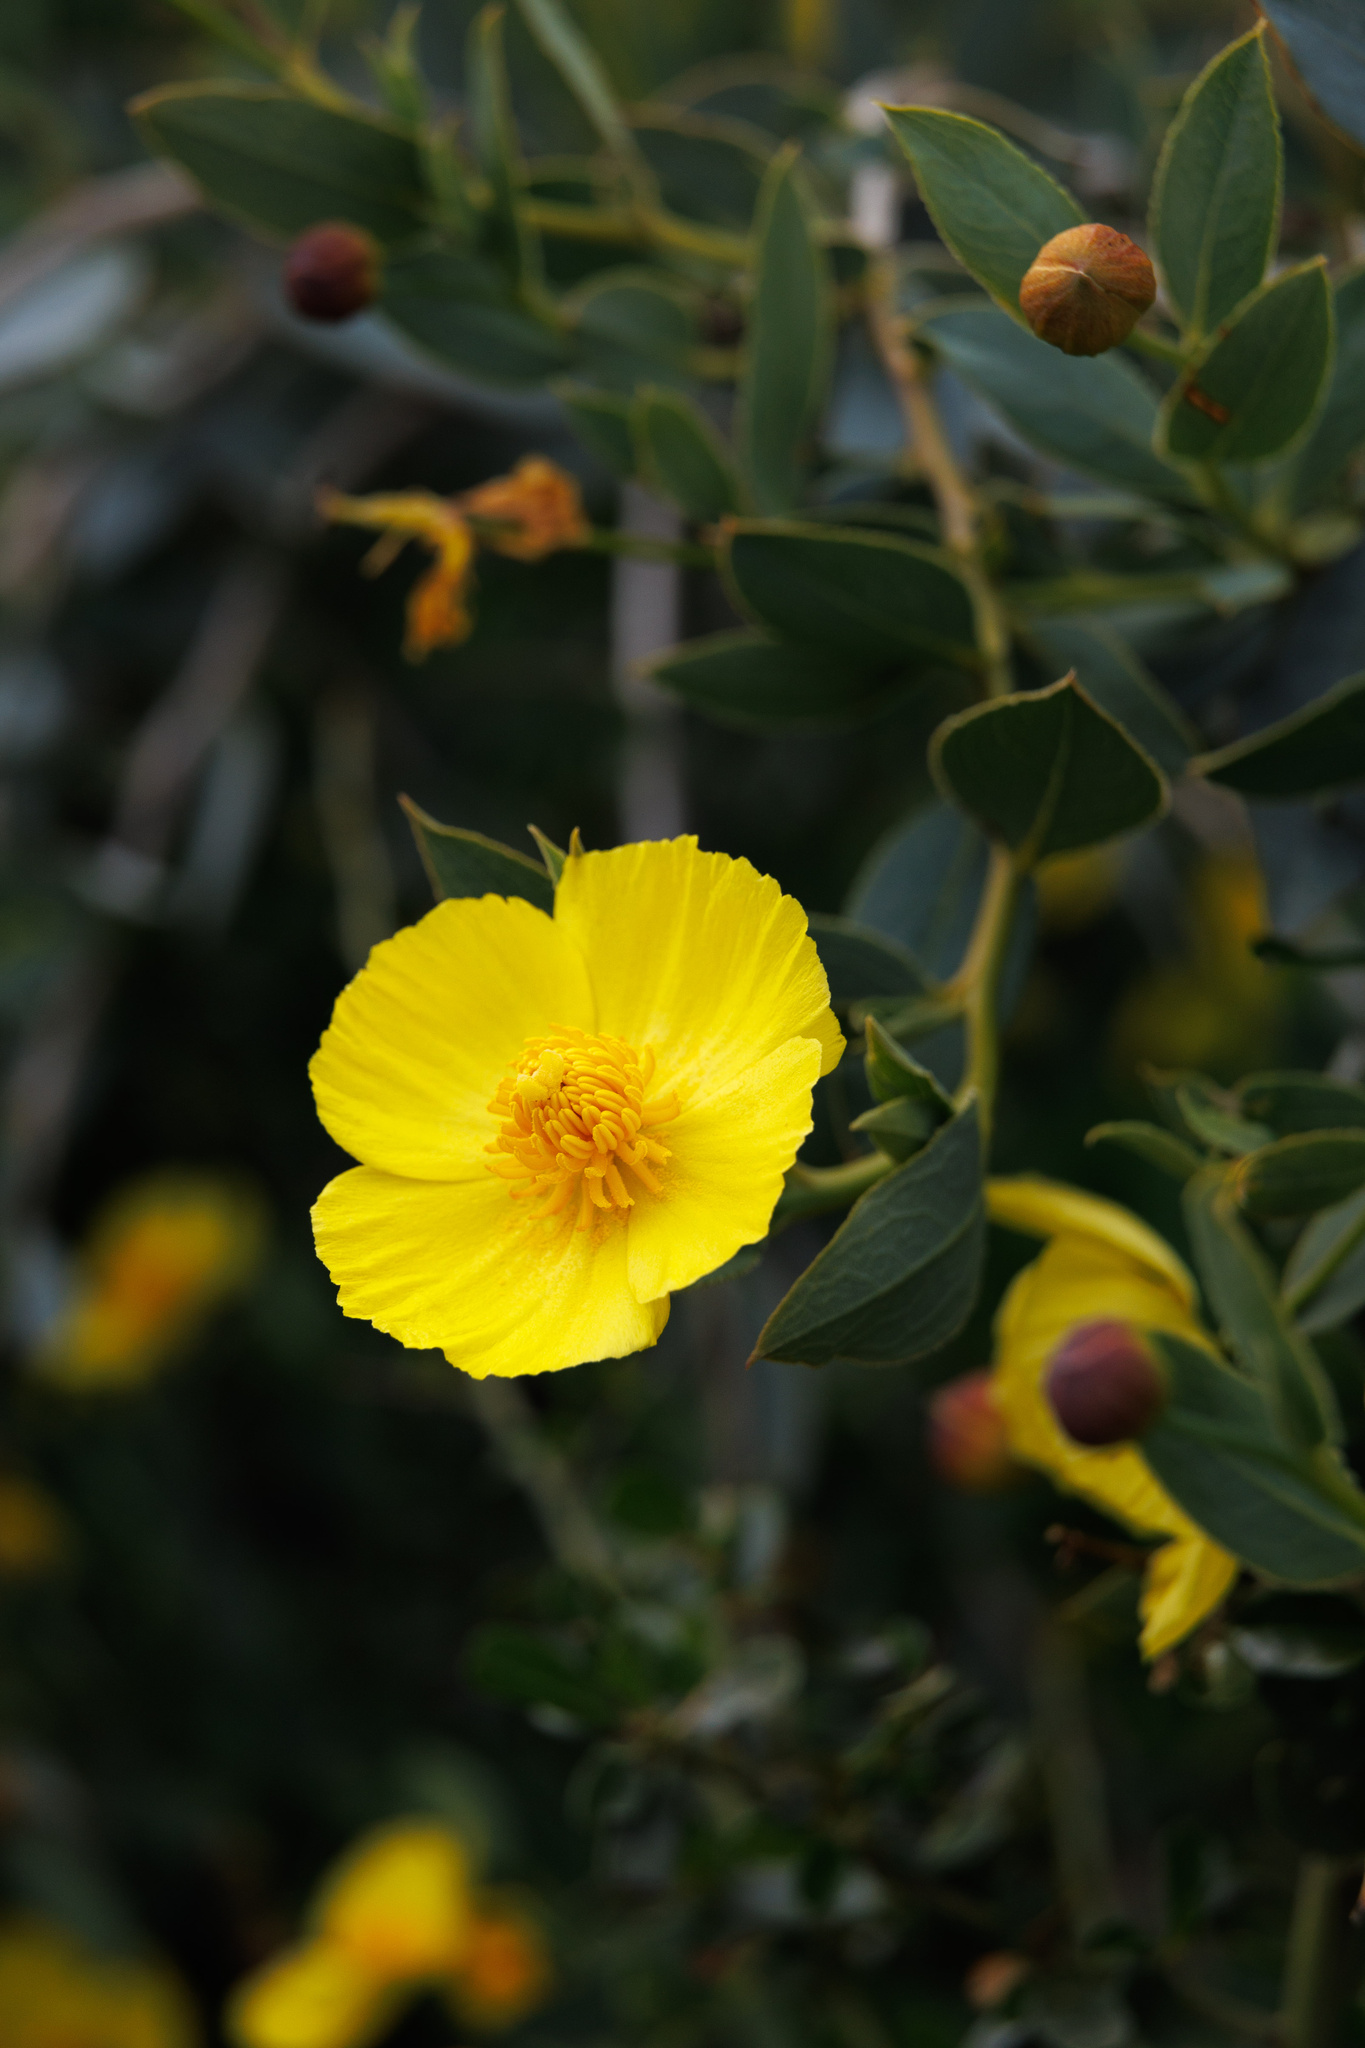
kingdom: Plantae
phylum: Tracheophyta
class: Magnoliopsida
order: Ranunculales
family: Papaveraceae
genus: Dendromecon
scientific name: Dendromecon rigida
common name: Tree poppy
